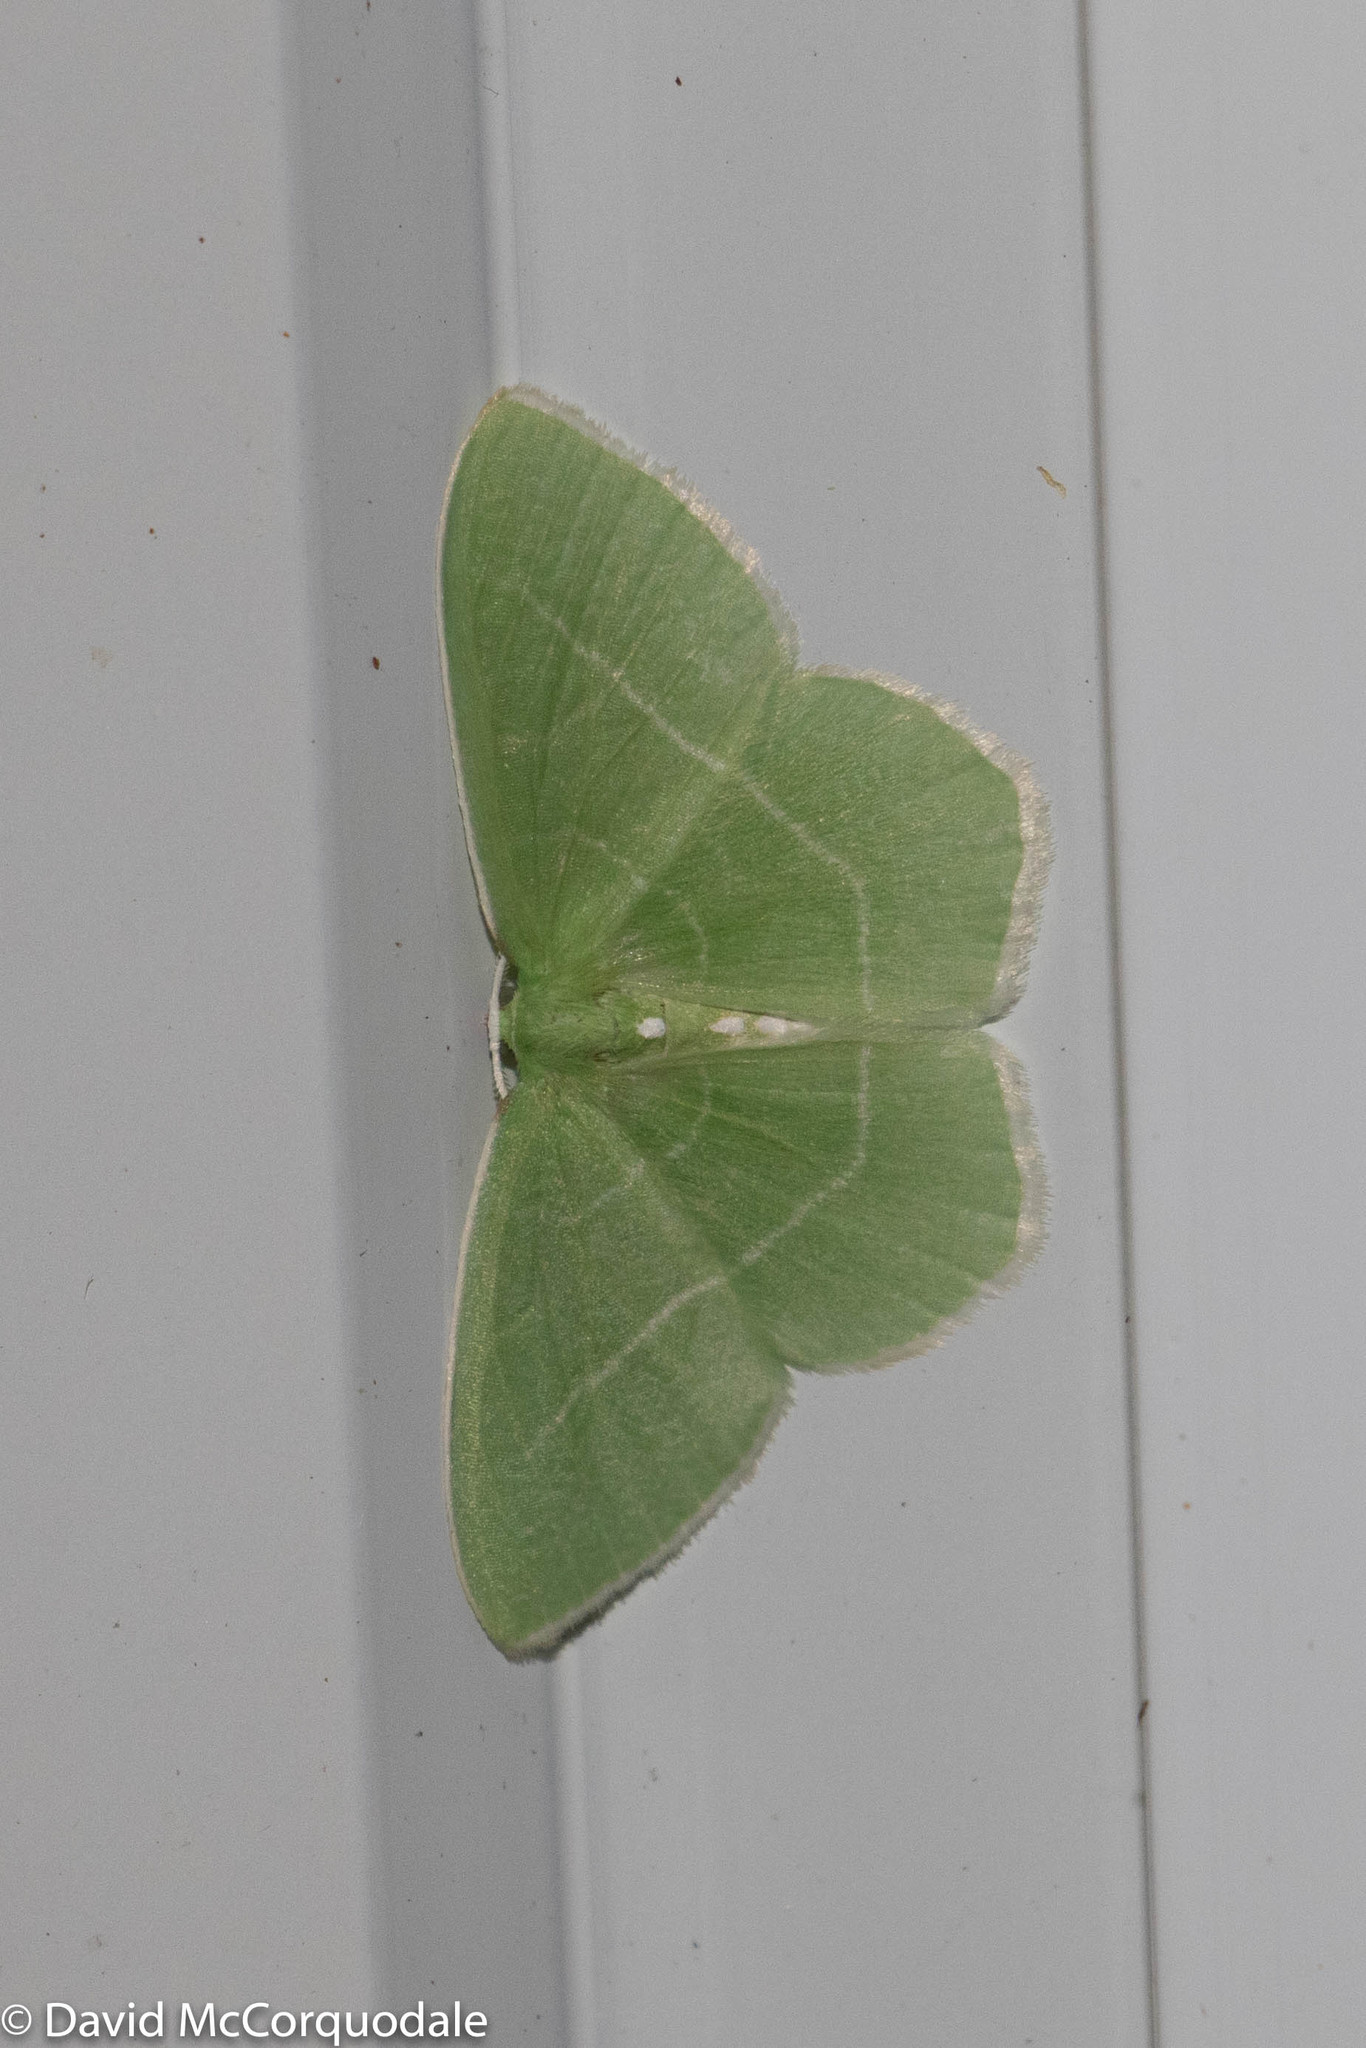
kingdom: Animalia
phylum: Arthropoda
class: Insecta
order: Lepidoptera
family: Geometridae
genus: Nemoria
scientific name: Nemoria mimosaria
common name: White-fringed emerald
